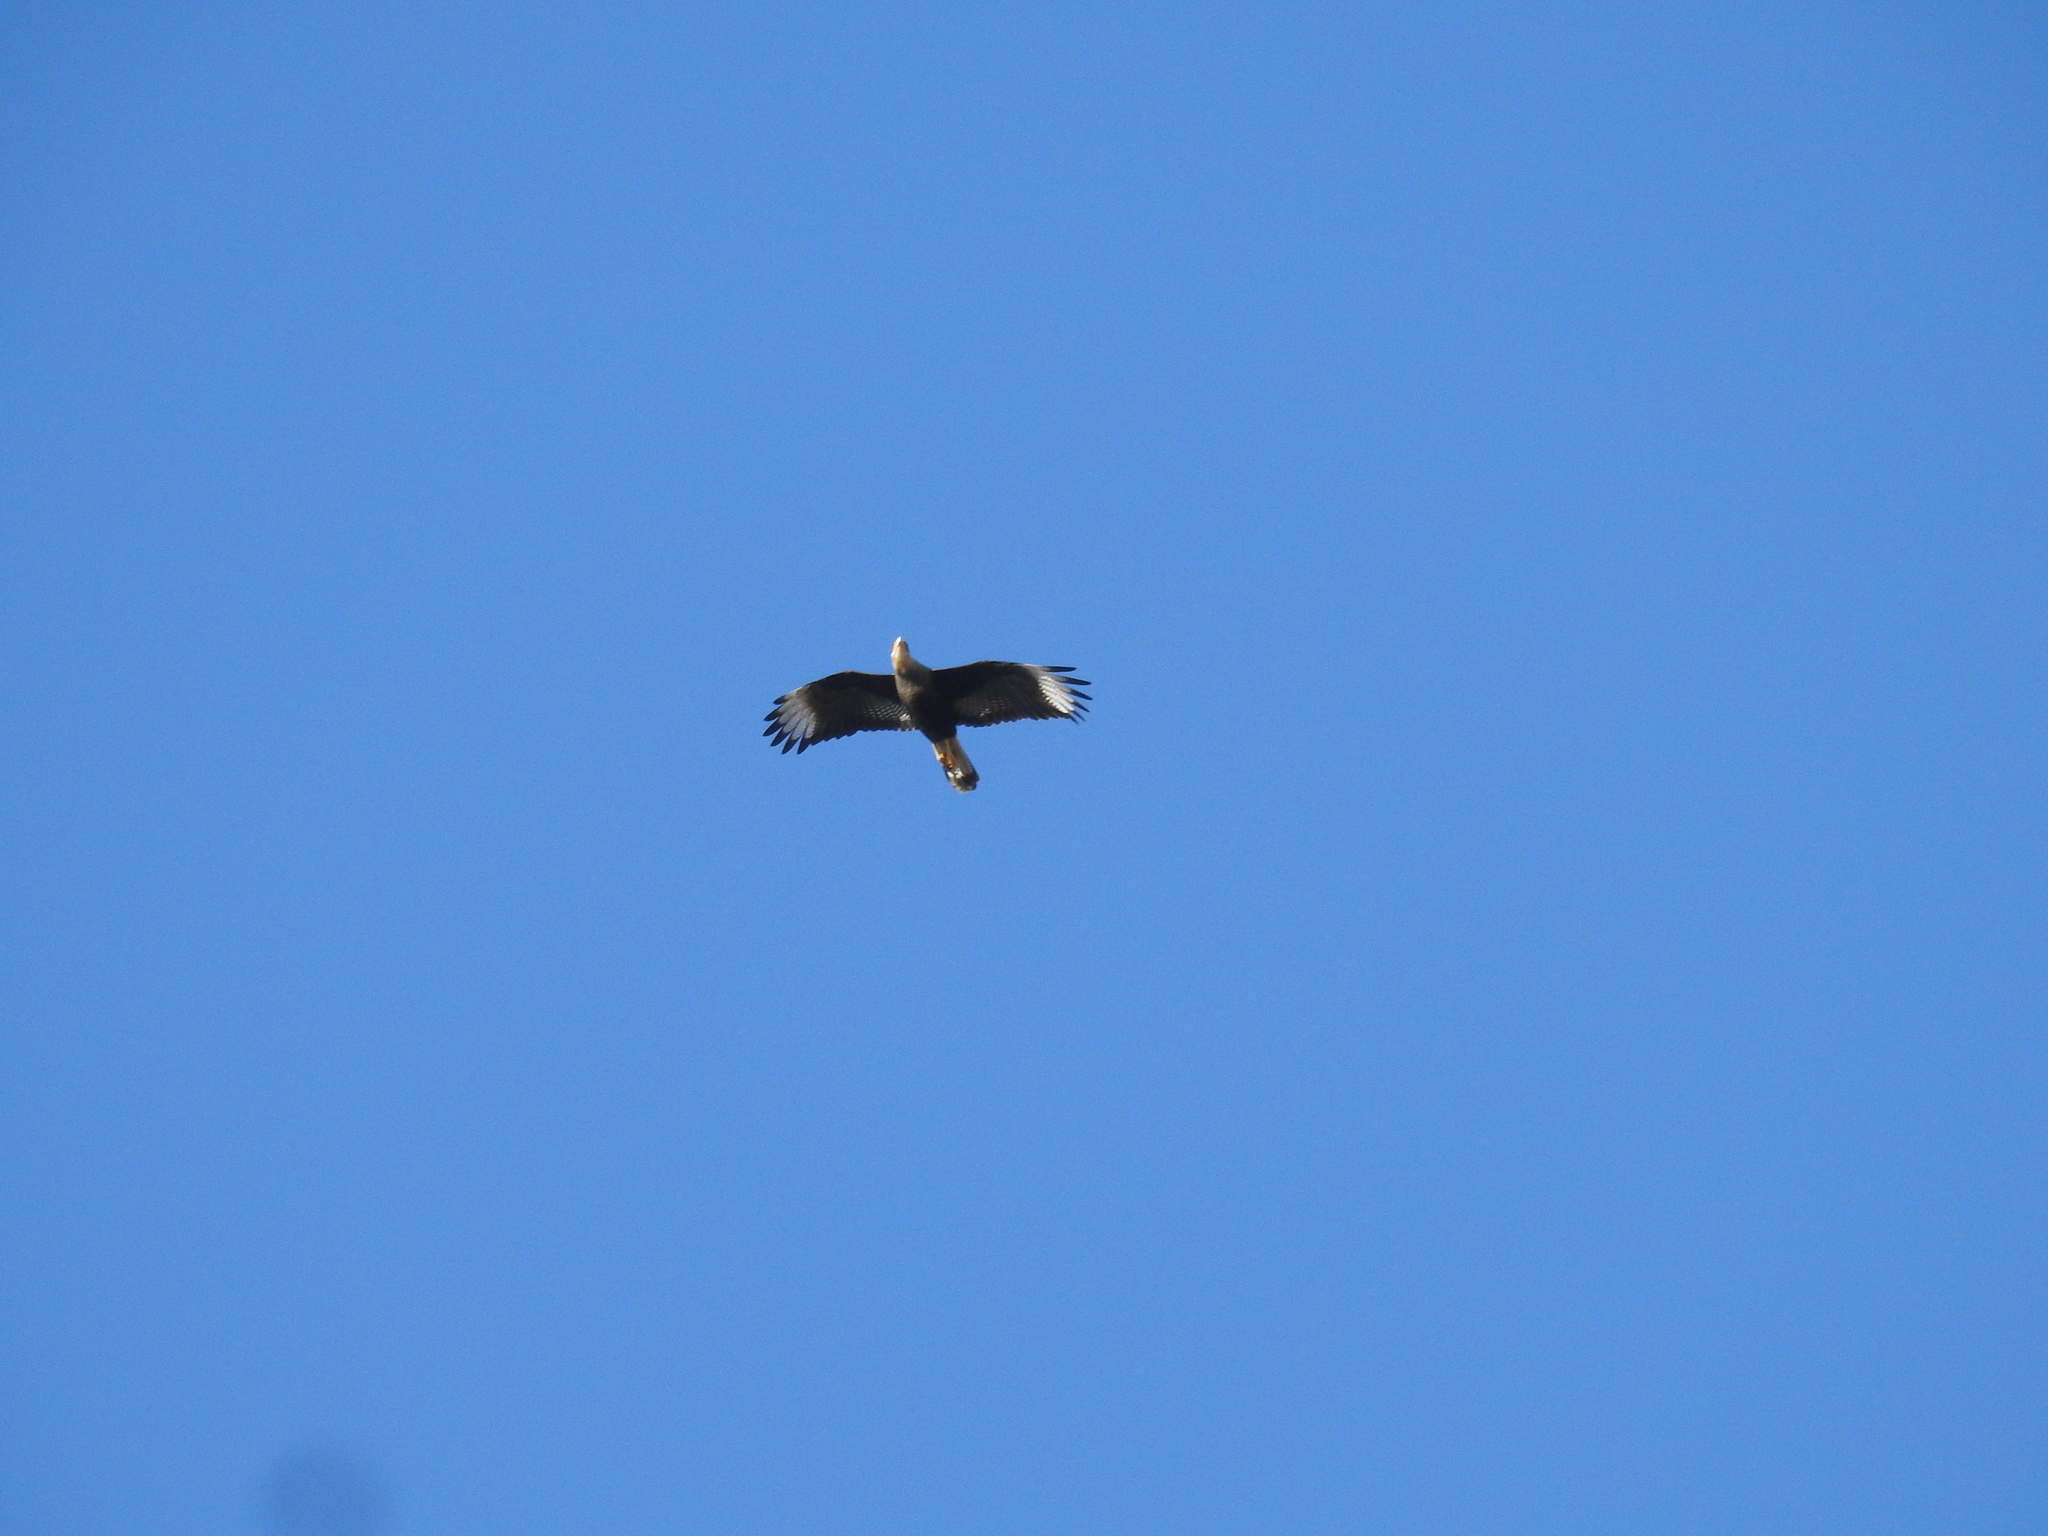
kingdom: Animalia
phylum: Chordata
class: Aves
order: Falconiformes
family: Falconidae
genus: Caracara
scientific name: Caracara plancus
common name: Southern caracara
